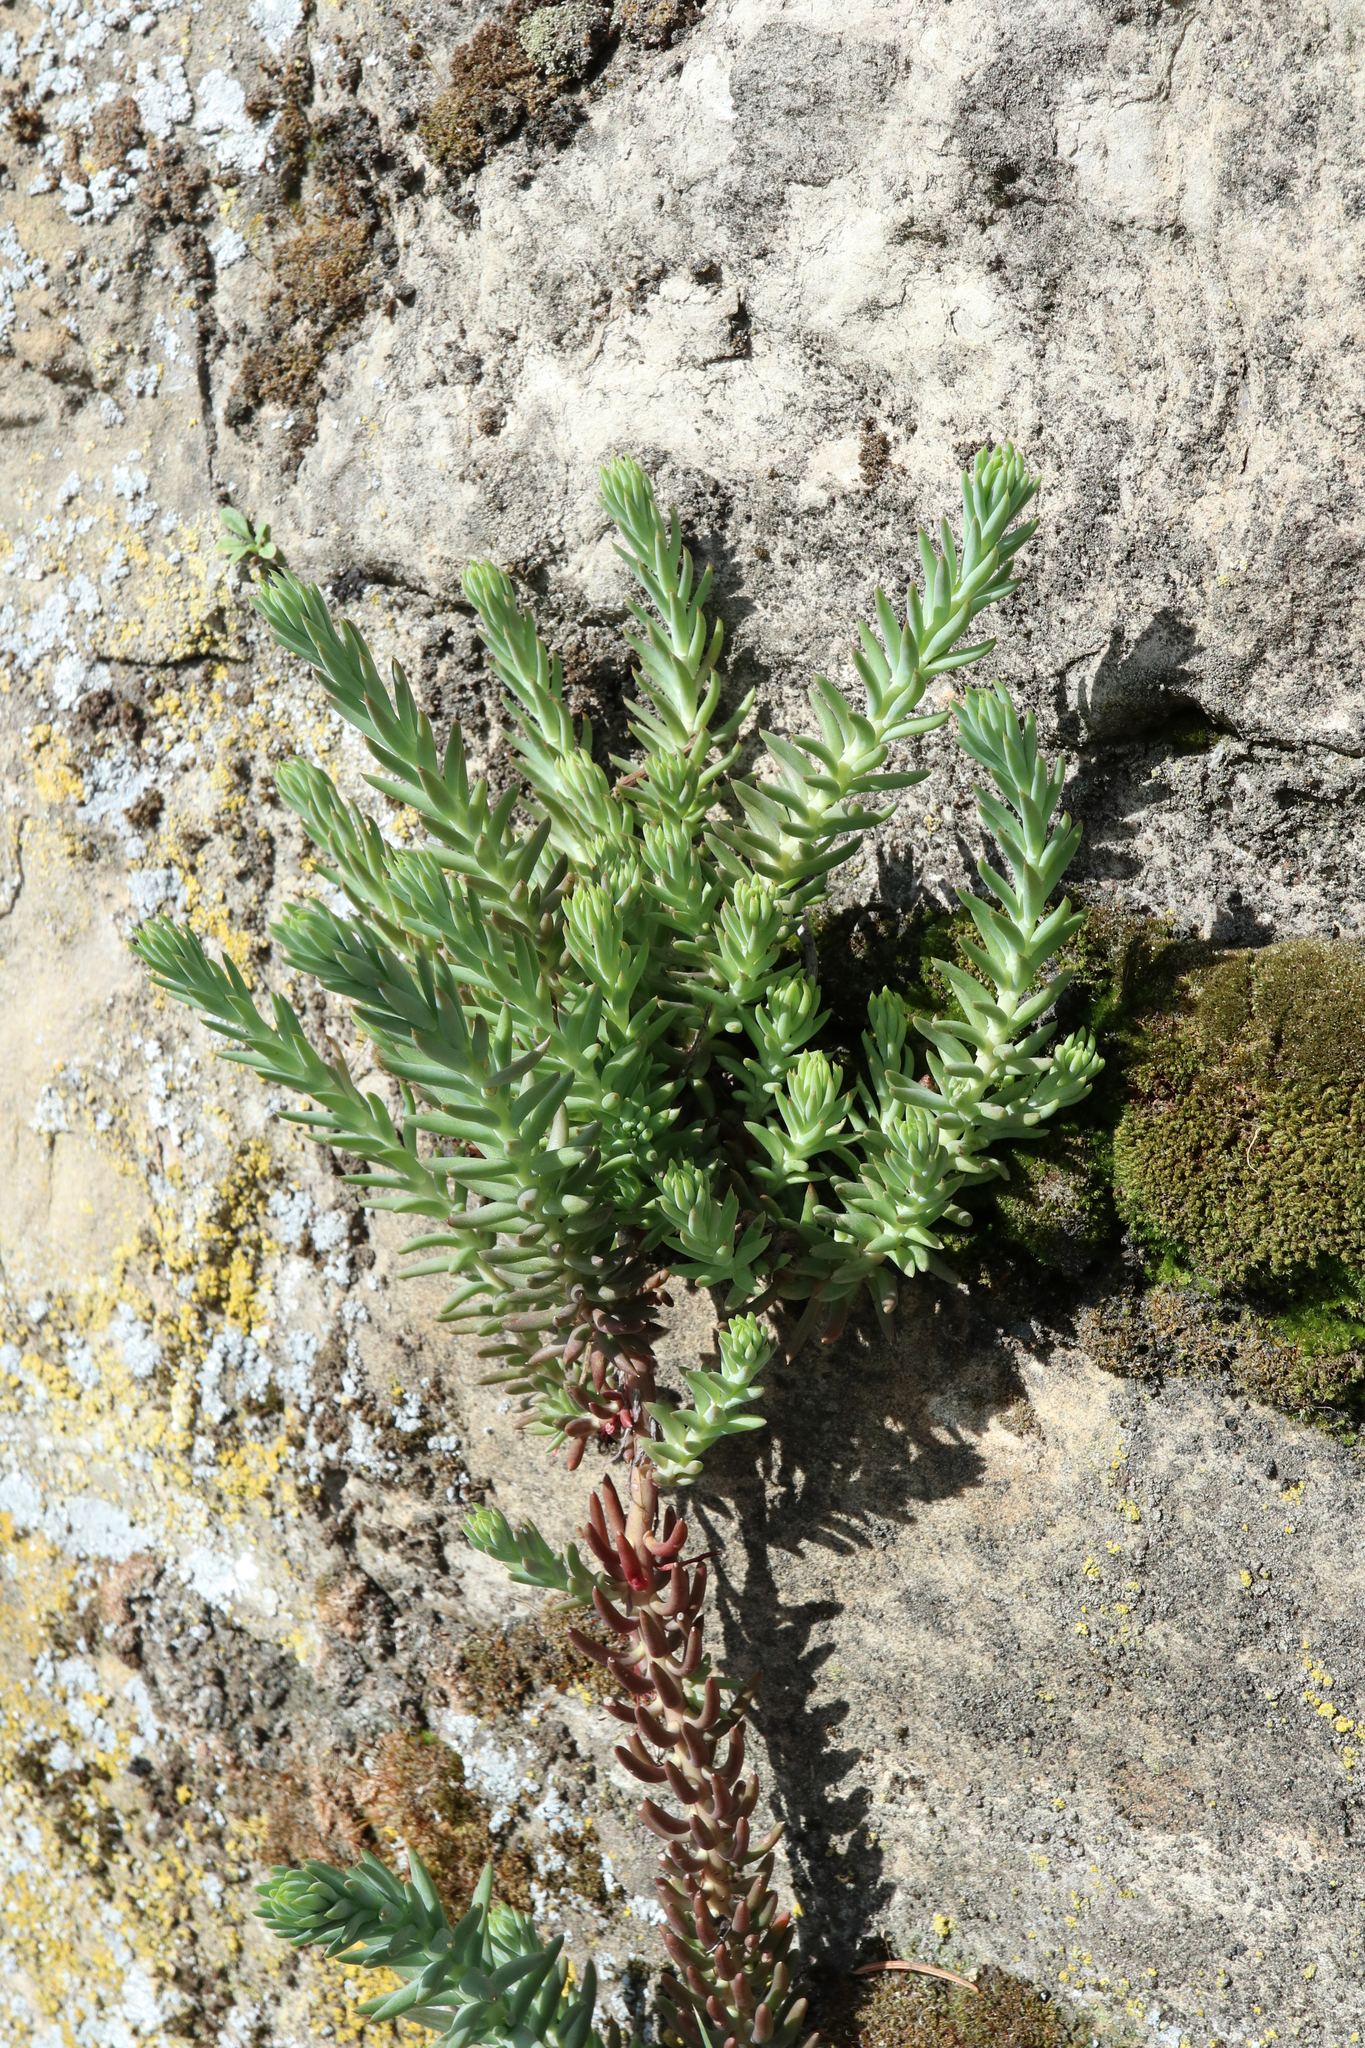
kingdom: Plantae
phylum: Tracheophyta
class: Magnoliopsida
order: Saxifragales
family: Crassulaceae
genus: Petrosedum
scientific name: Petrosedum rupestre
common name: Jenny's stonecrop
